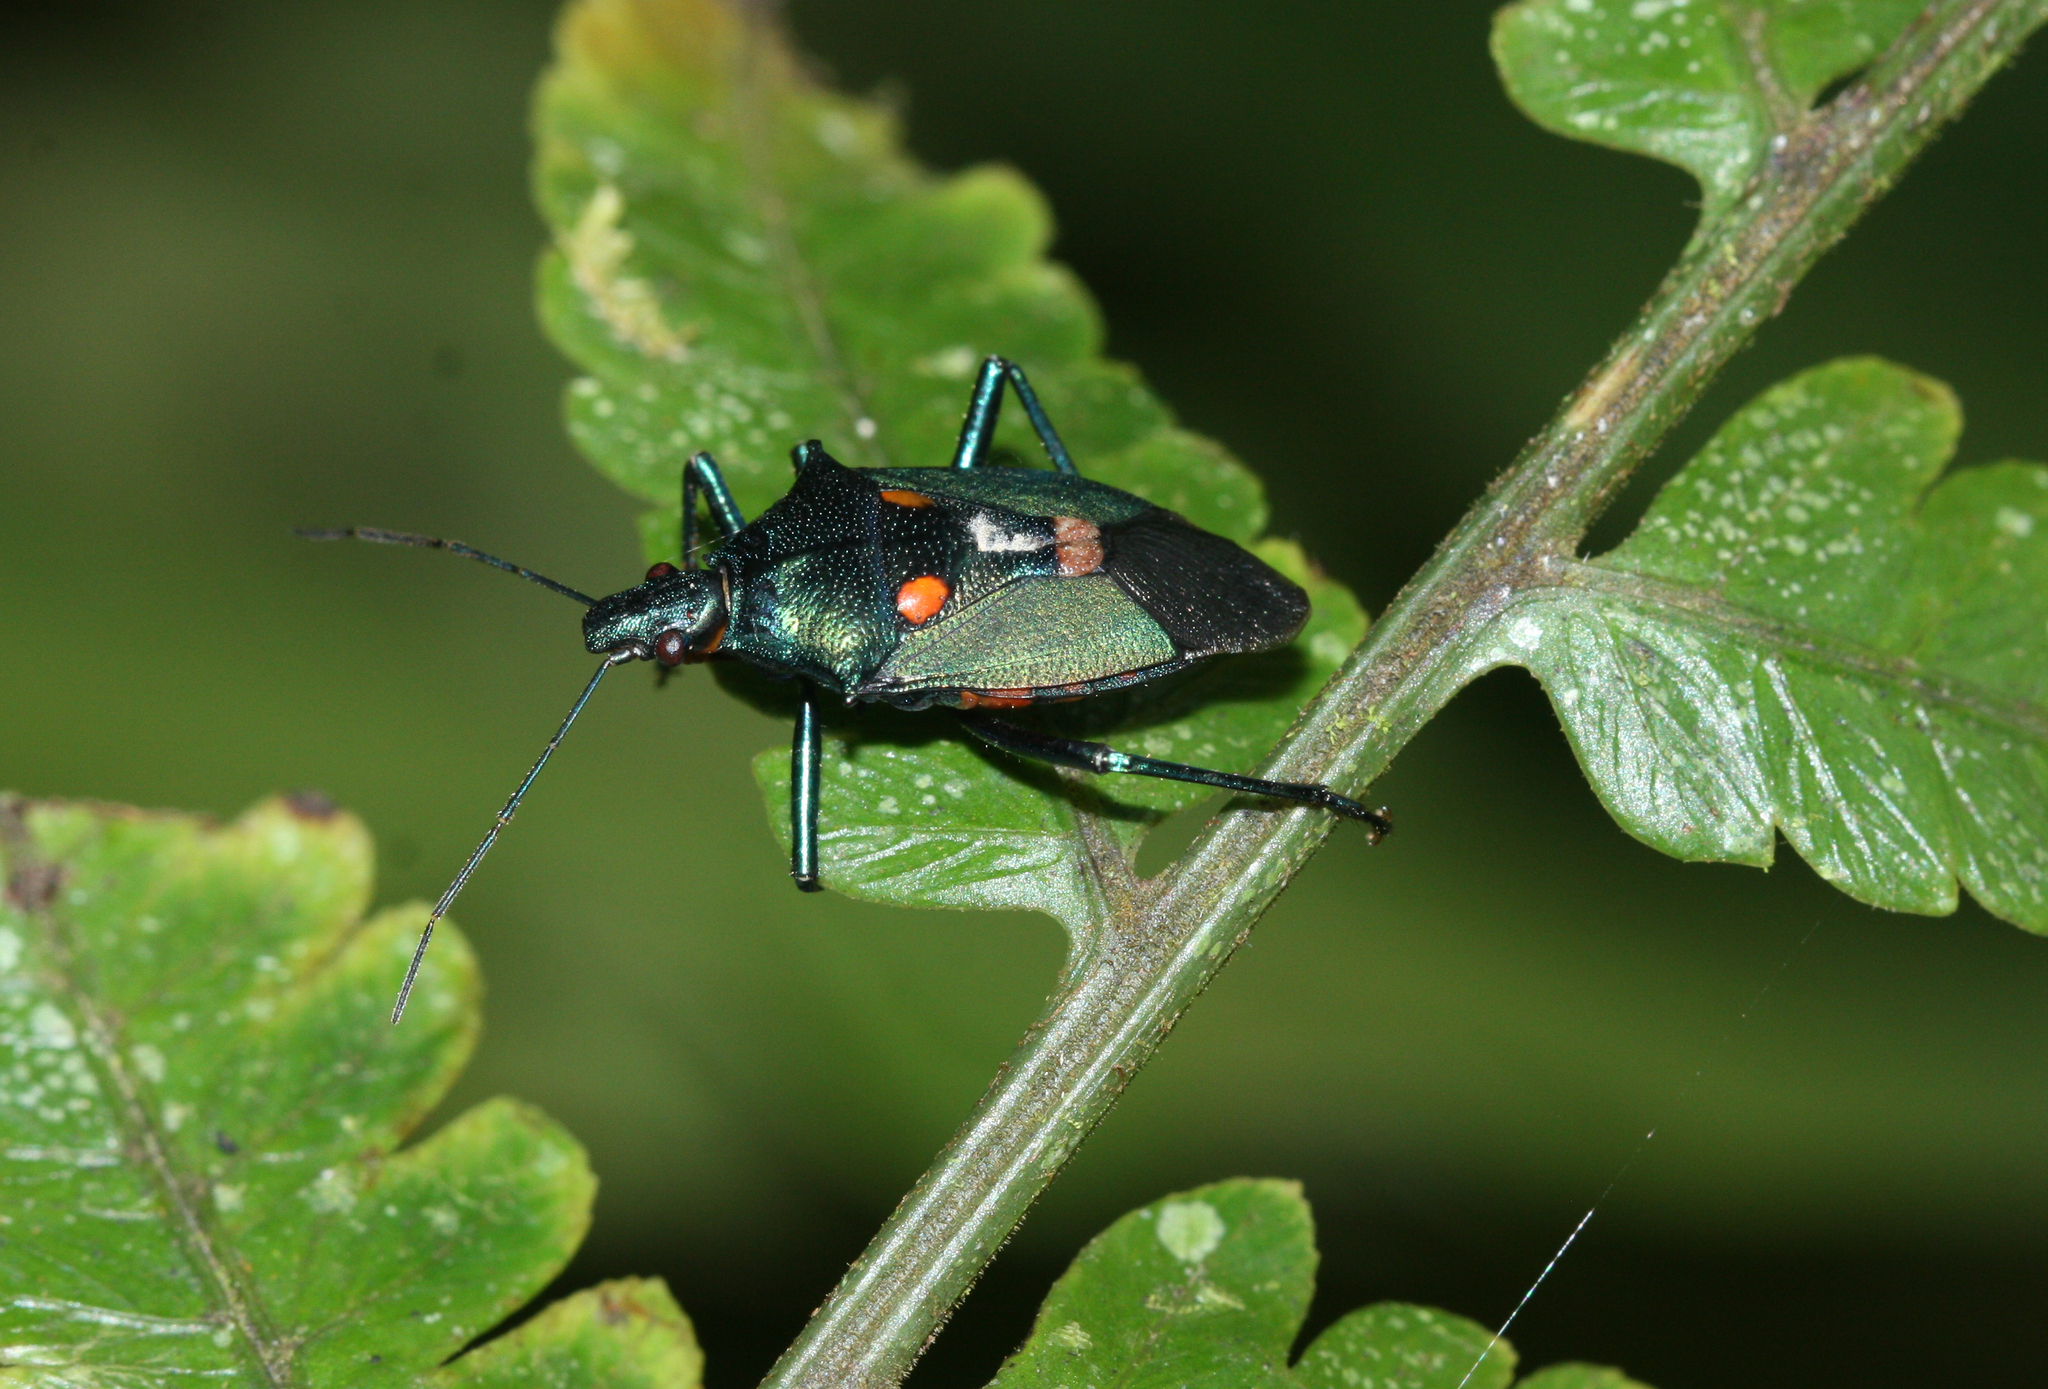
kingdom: Animalia
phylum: Arthropoda
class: Insecta
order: Hemiptera
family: Pentatomidae
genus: Euthyrhynchus
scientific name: Euthyrhynchus floridanus
